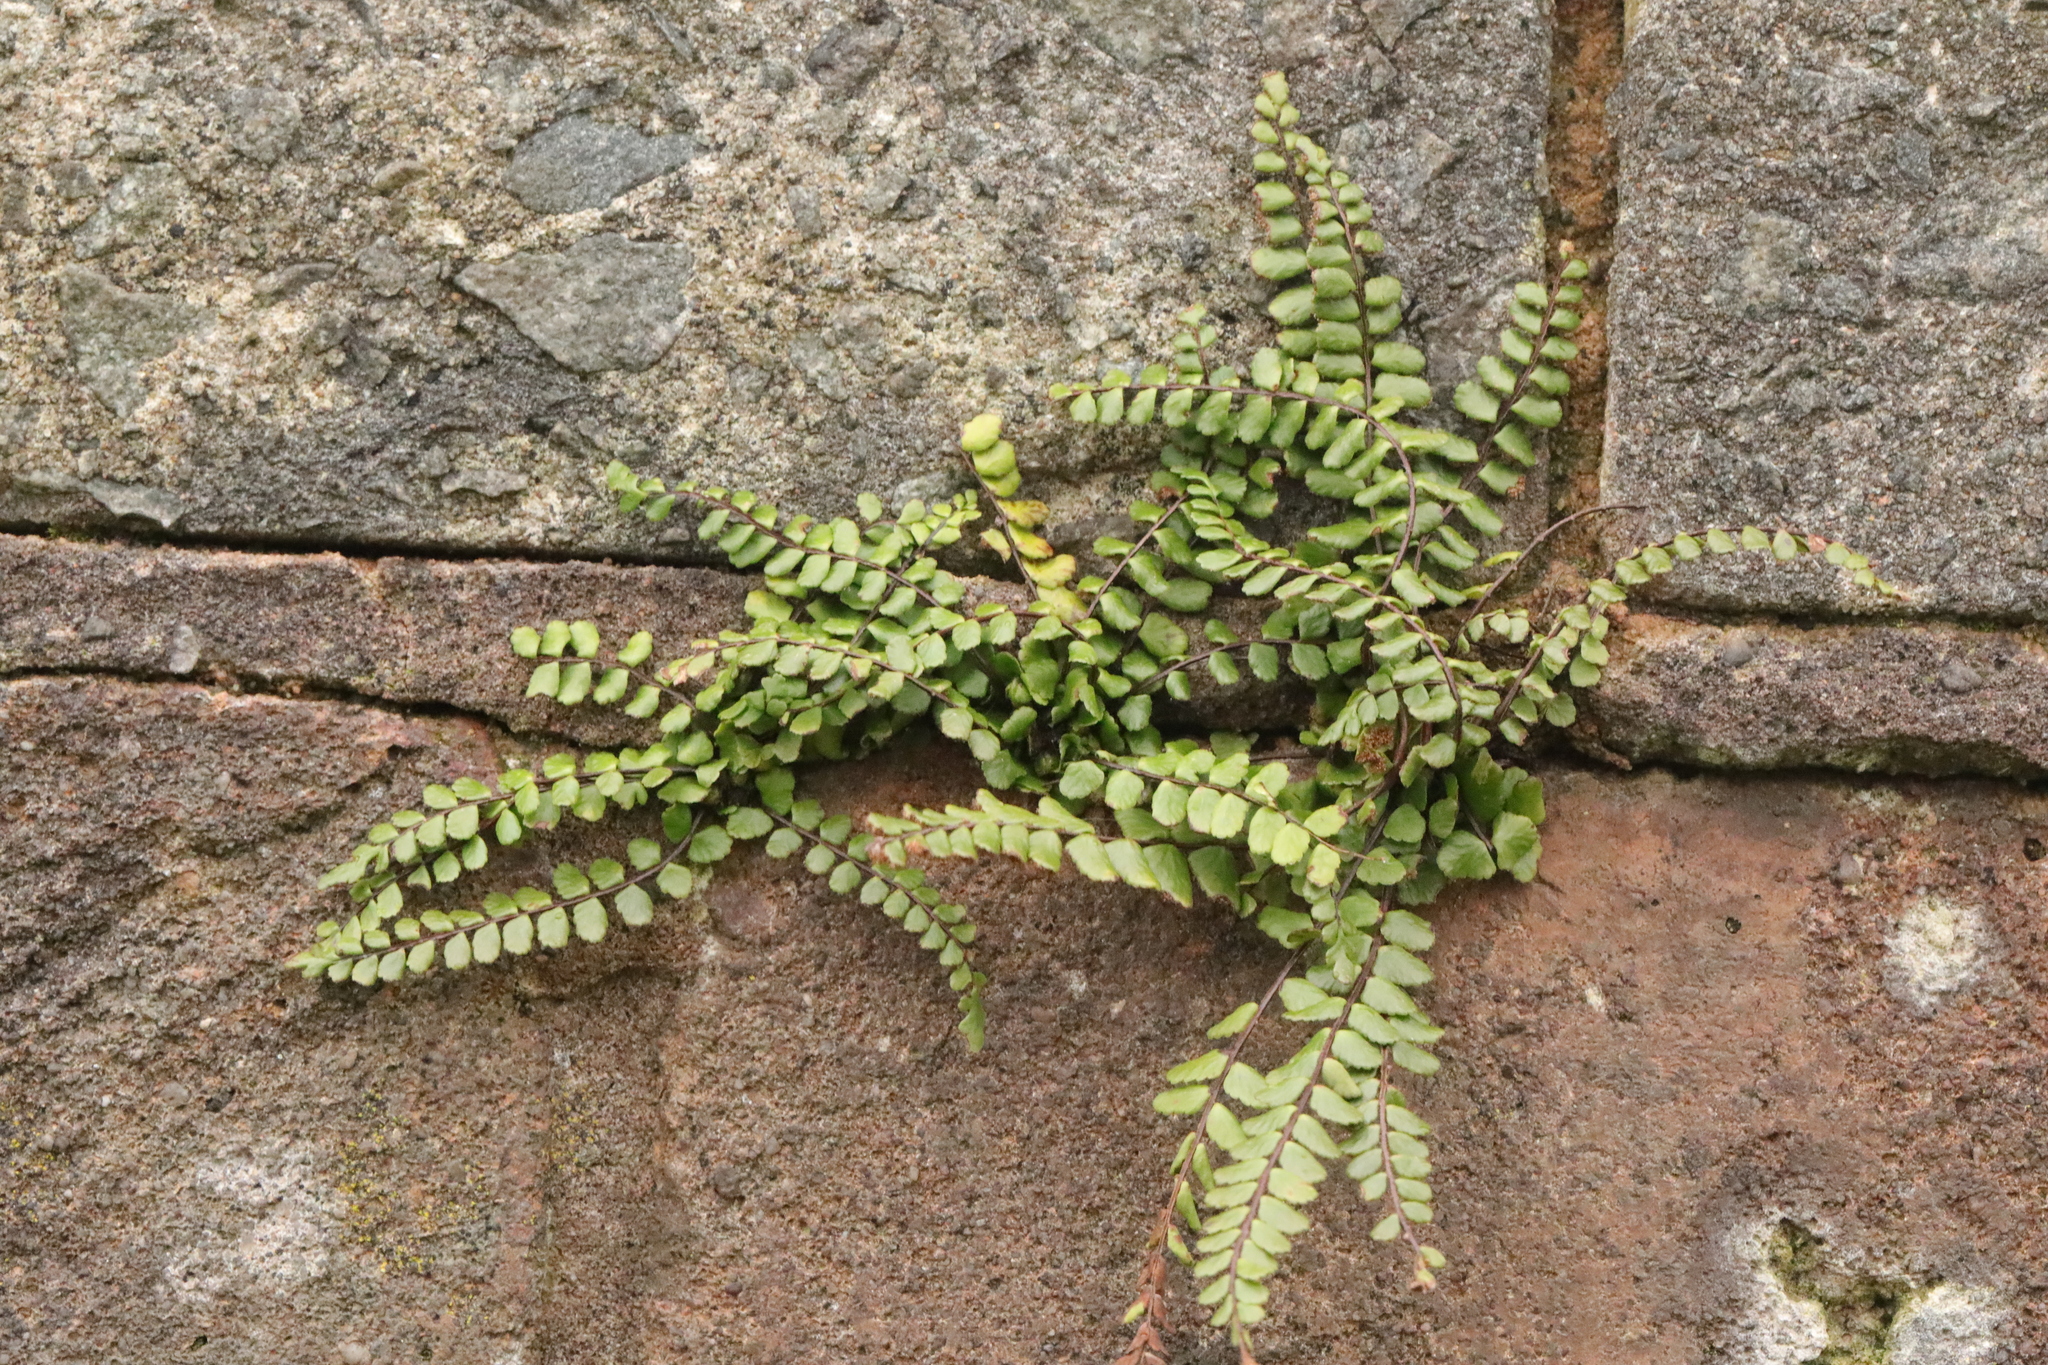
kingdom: Plantae
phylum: Tracheophyta
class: Polypodiopsida
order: Polypodiales
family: Aspleniaceae
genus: Asplenium
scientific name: Asplenium trichomanes
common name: Maidenhair spleenwort
